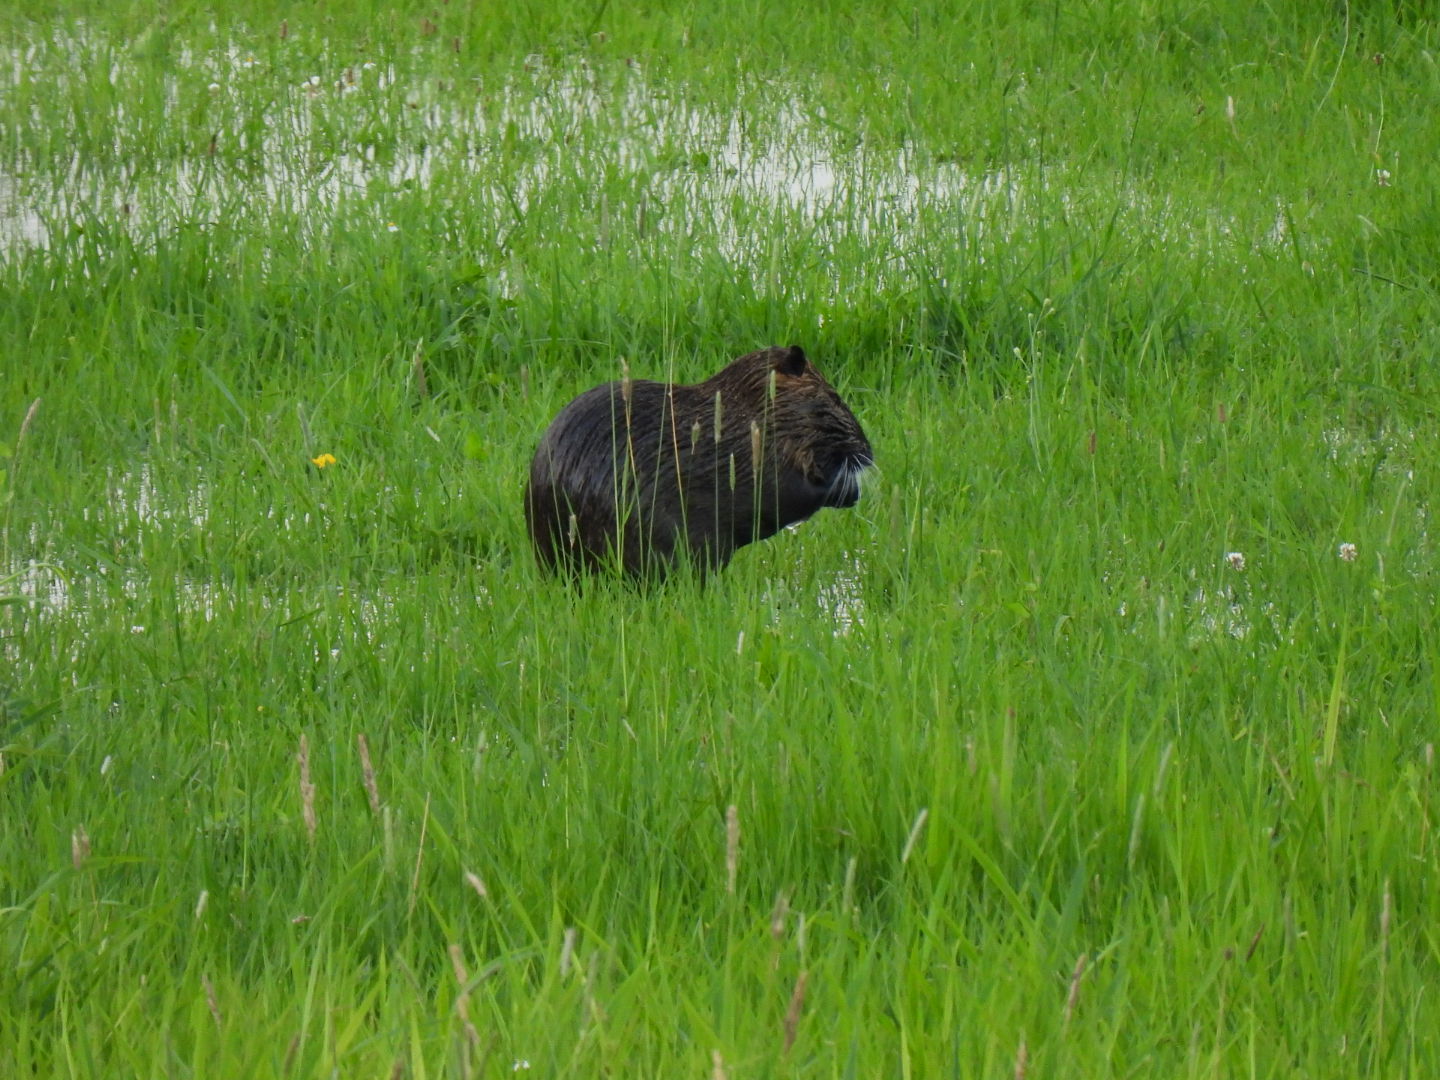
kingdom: Animalia
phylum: Chordata
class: Mammalia
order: Rodentia
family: Myocastoridae
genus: Myocastor
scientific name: Myocastor coypus
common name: Coypu
